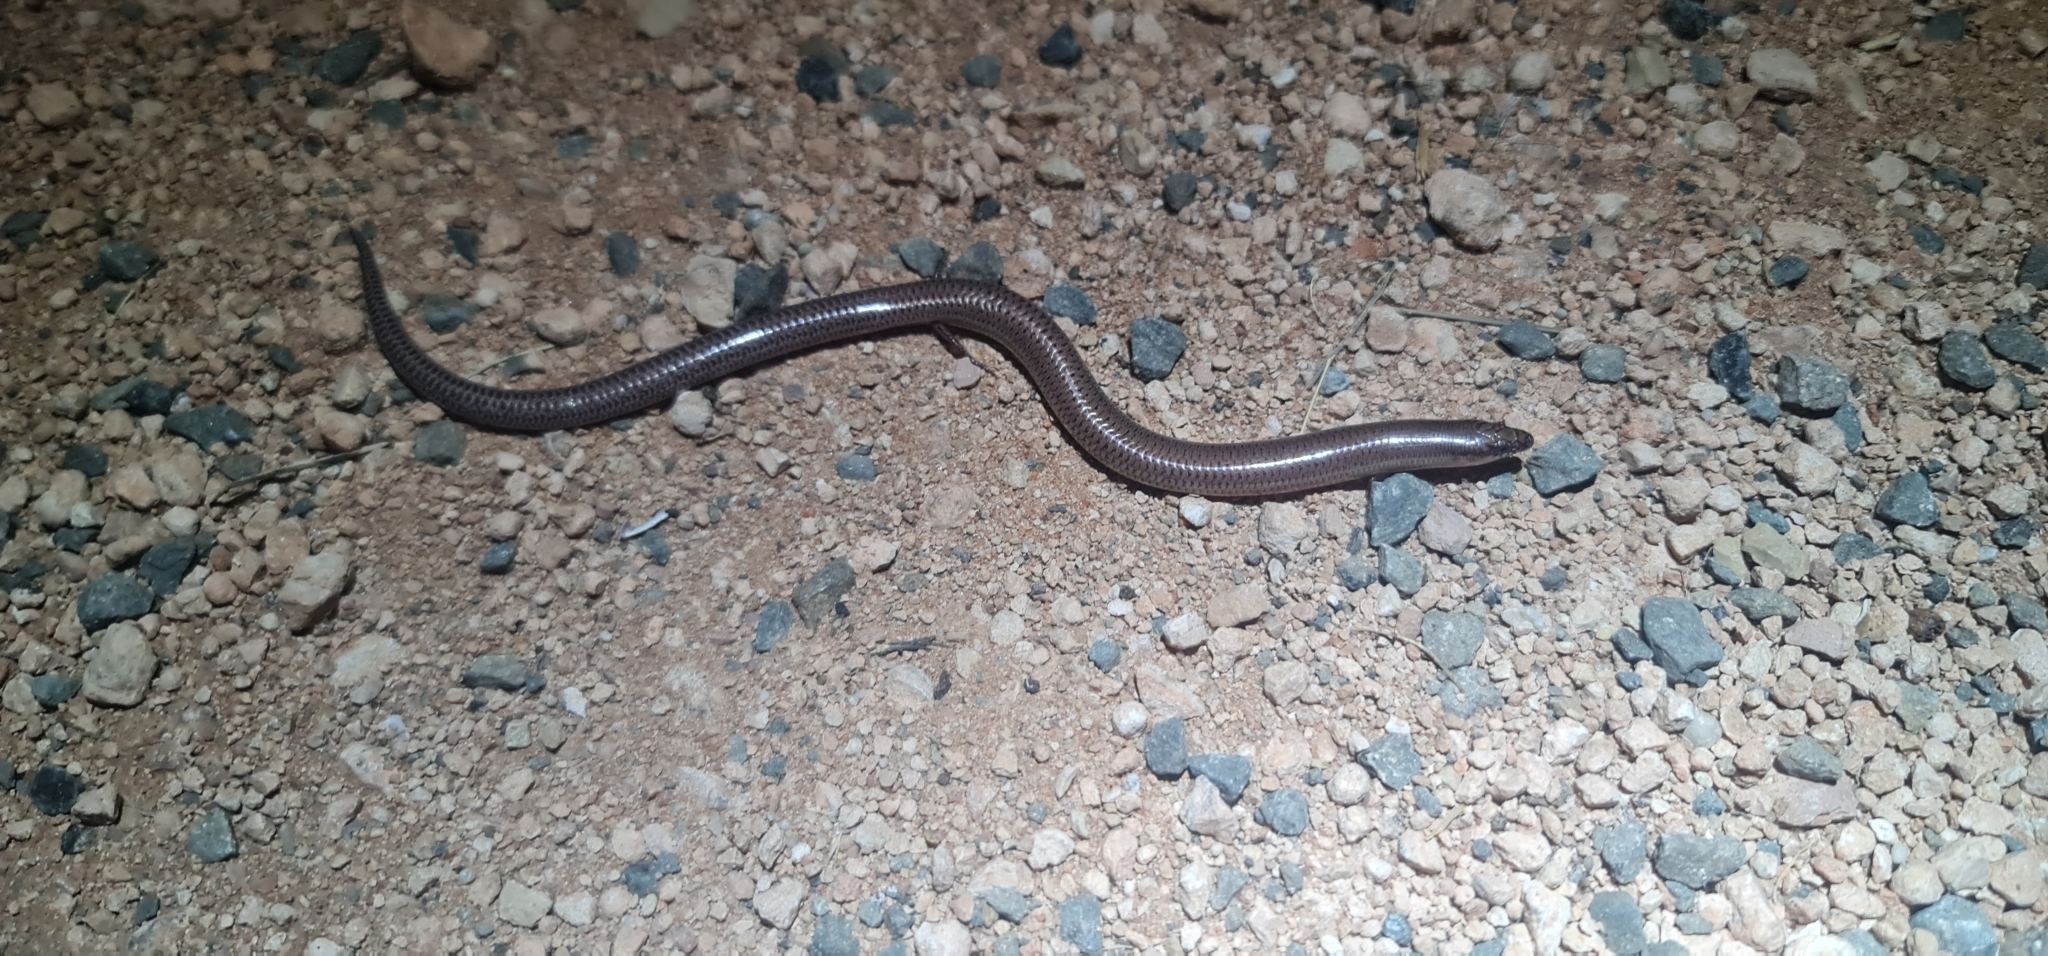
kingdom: Animalia
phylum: Chordata
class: Squamata
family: Scincidae
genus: Lerista
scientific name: Lerista punctatovittata
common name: Eastern robust slider
